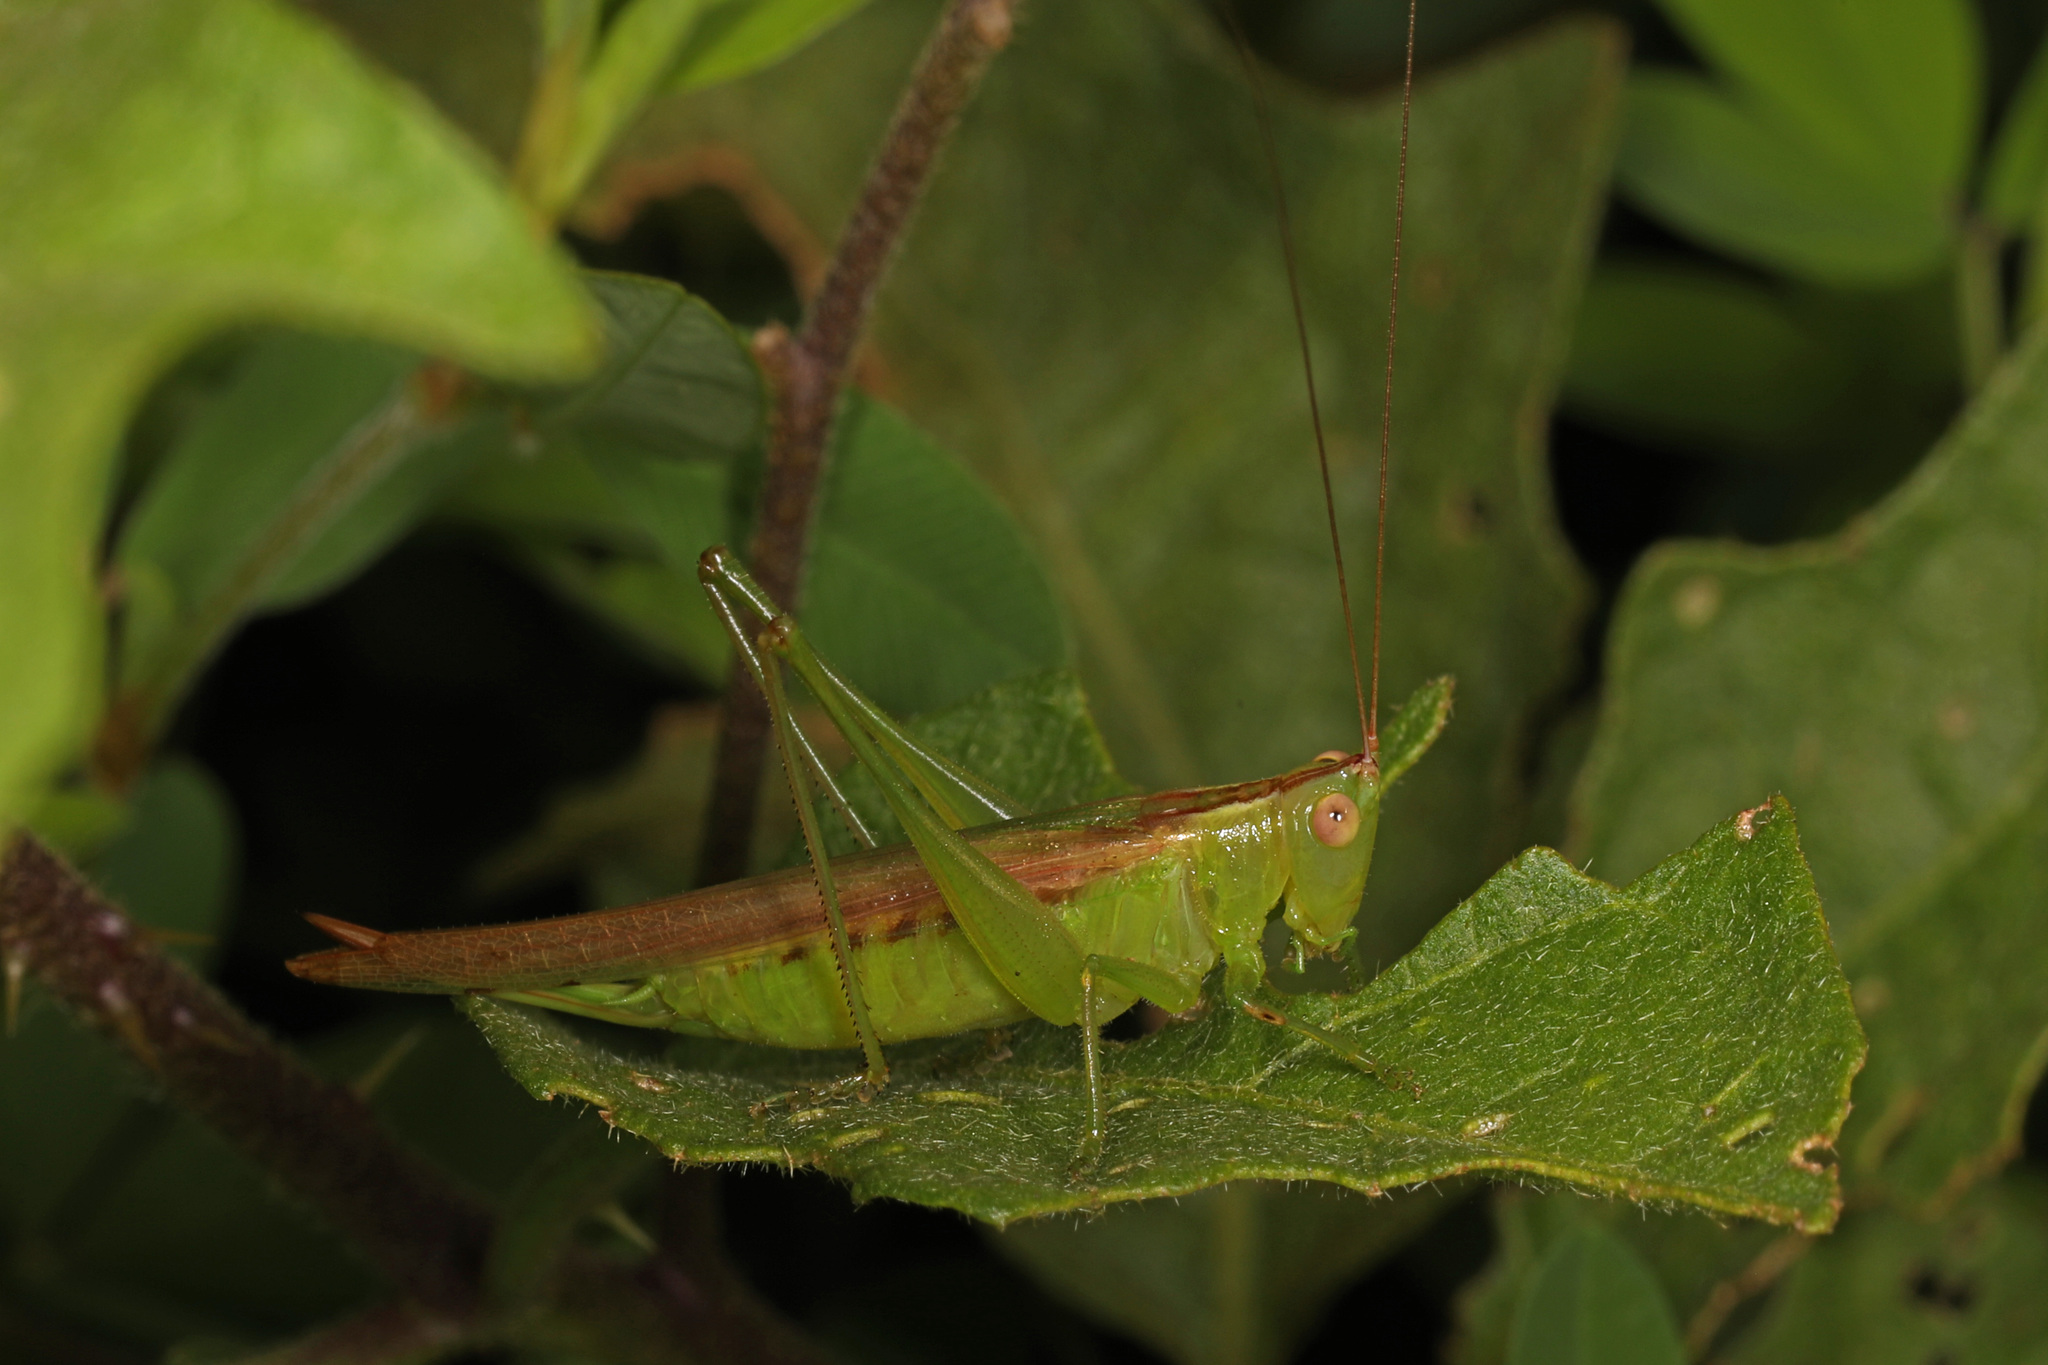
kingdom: Animalia
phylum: Arthropoda
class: Insecta
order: Orthoptera
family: Tettigoniidae
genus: Conocephalus
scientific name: Conocephalus fasciatus
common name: Slender meadow katydid
